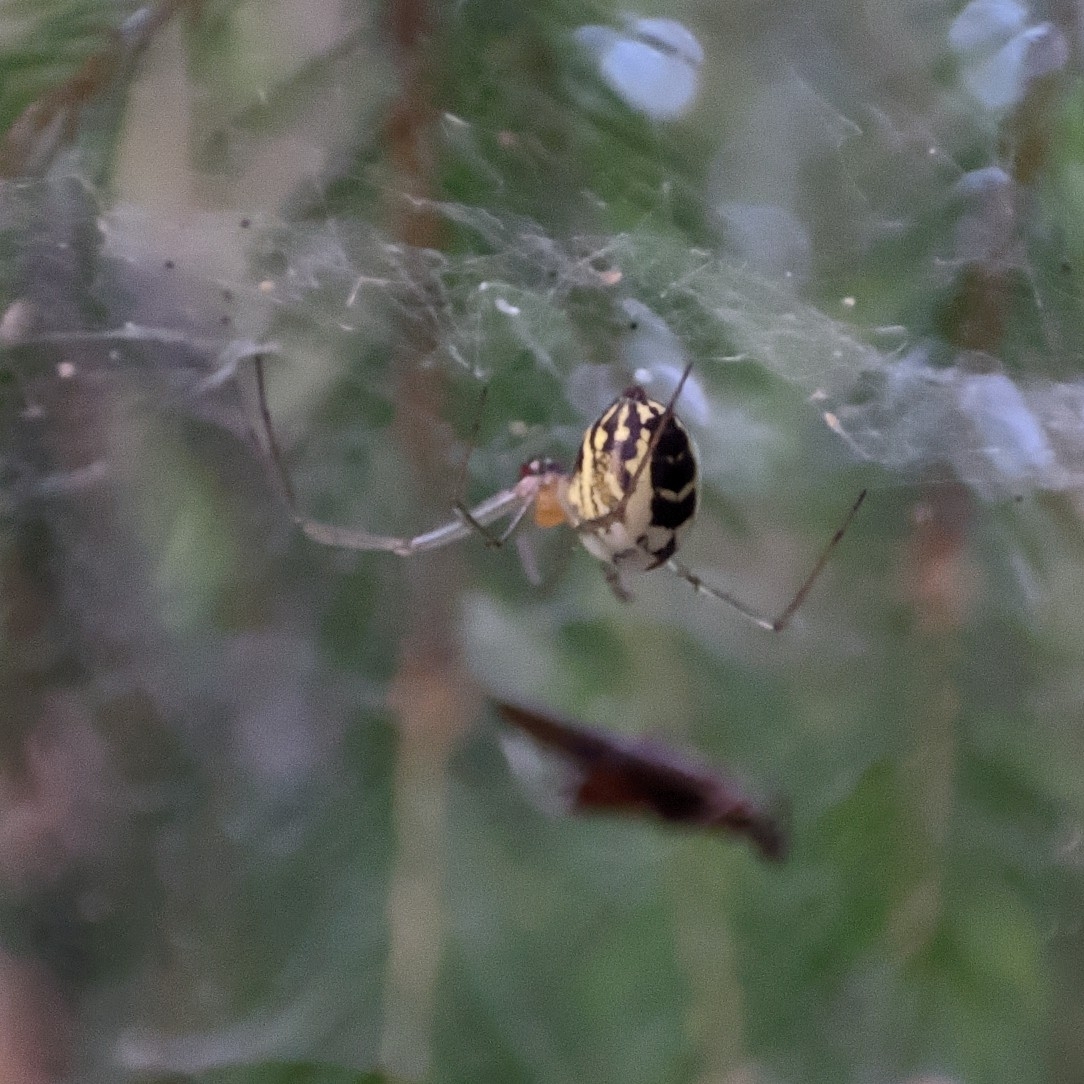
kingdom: Animalia
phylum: Arthropoda
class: Arachnida
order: Araneae
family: Linyphiidae
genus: Neriene
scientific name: Neriene radiata
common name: Filmy dome spider
